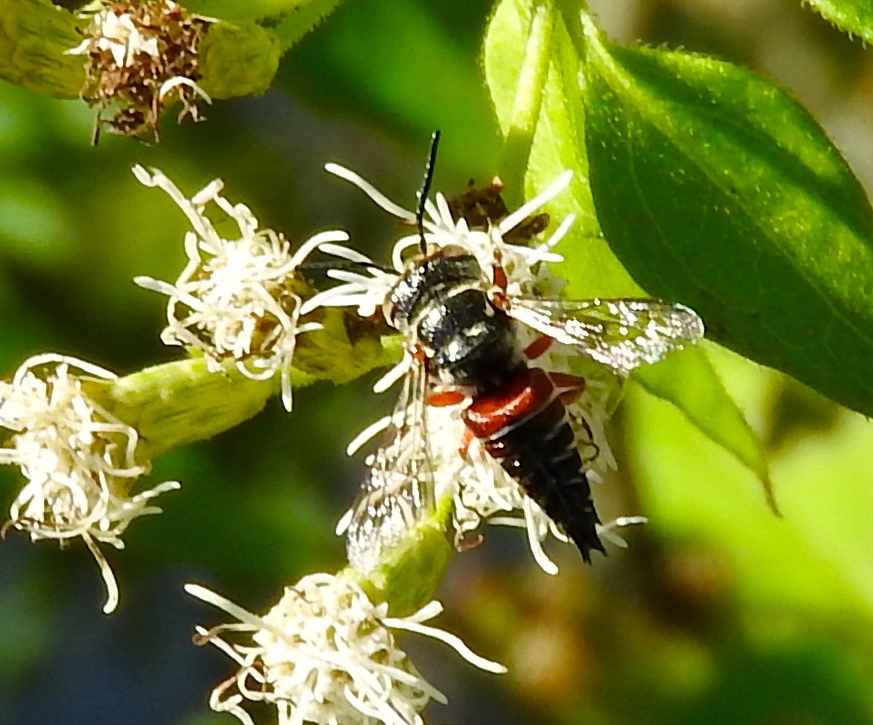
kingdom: Animalia
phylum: Arthropoda
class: Insecta
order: Hymenoptera
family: Megachilidae
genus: Coelioxys
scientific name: Coelioxys
